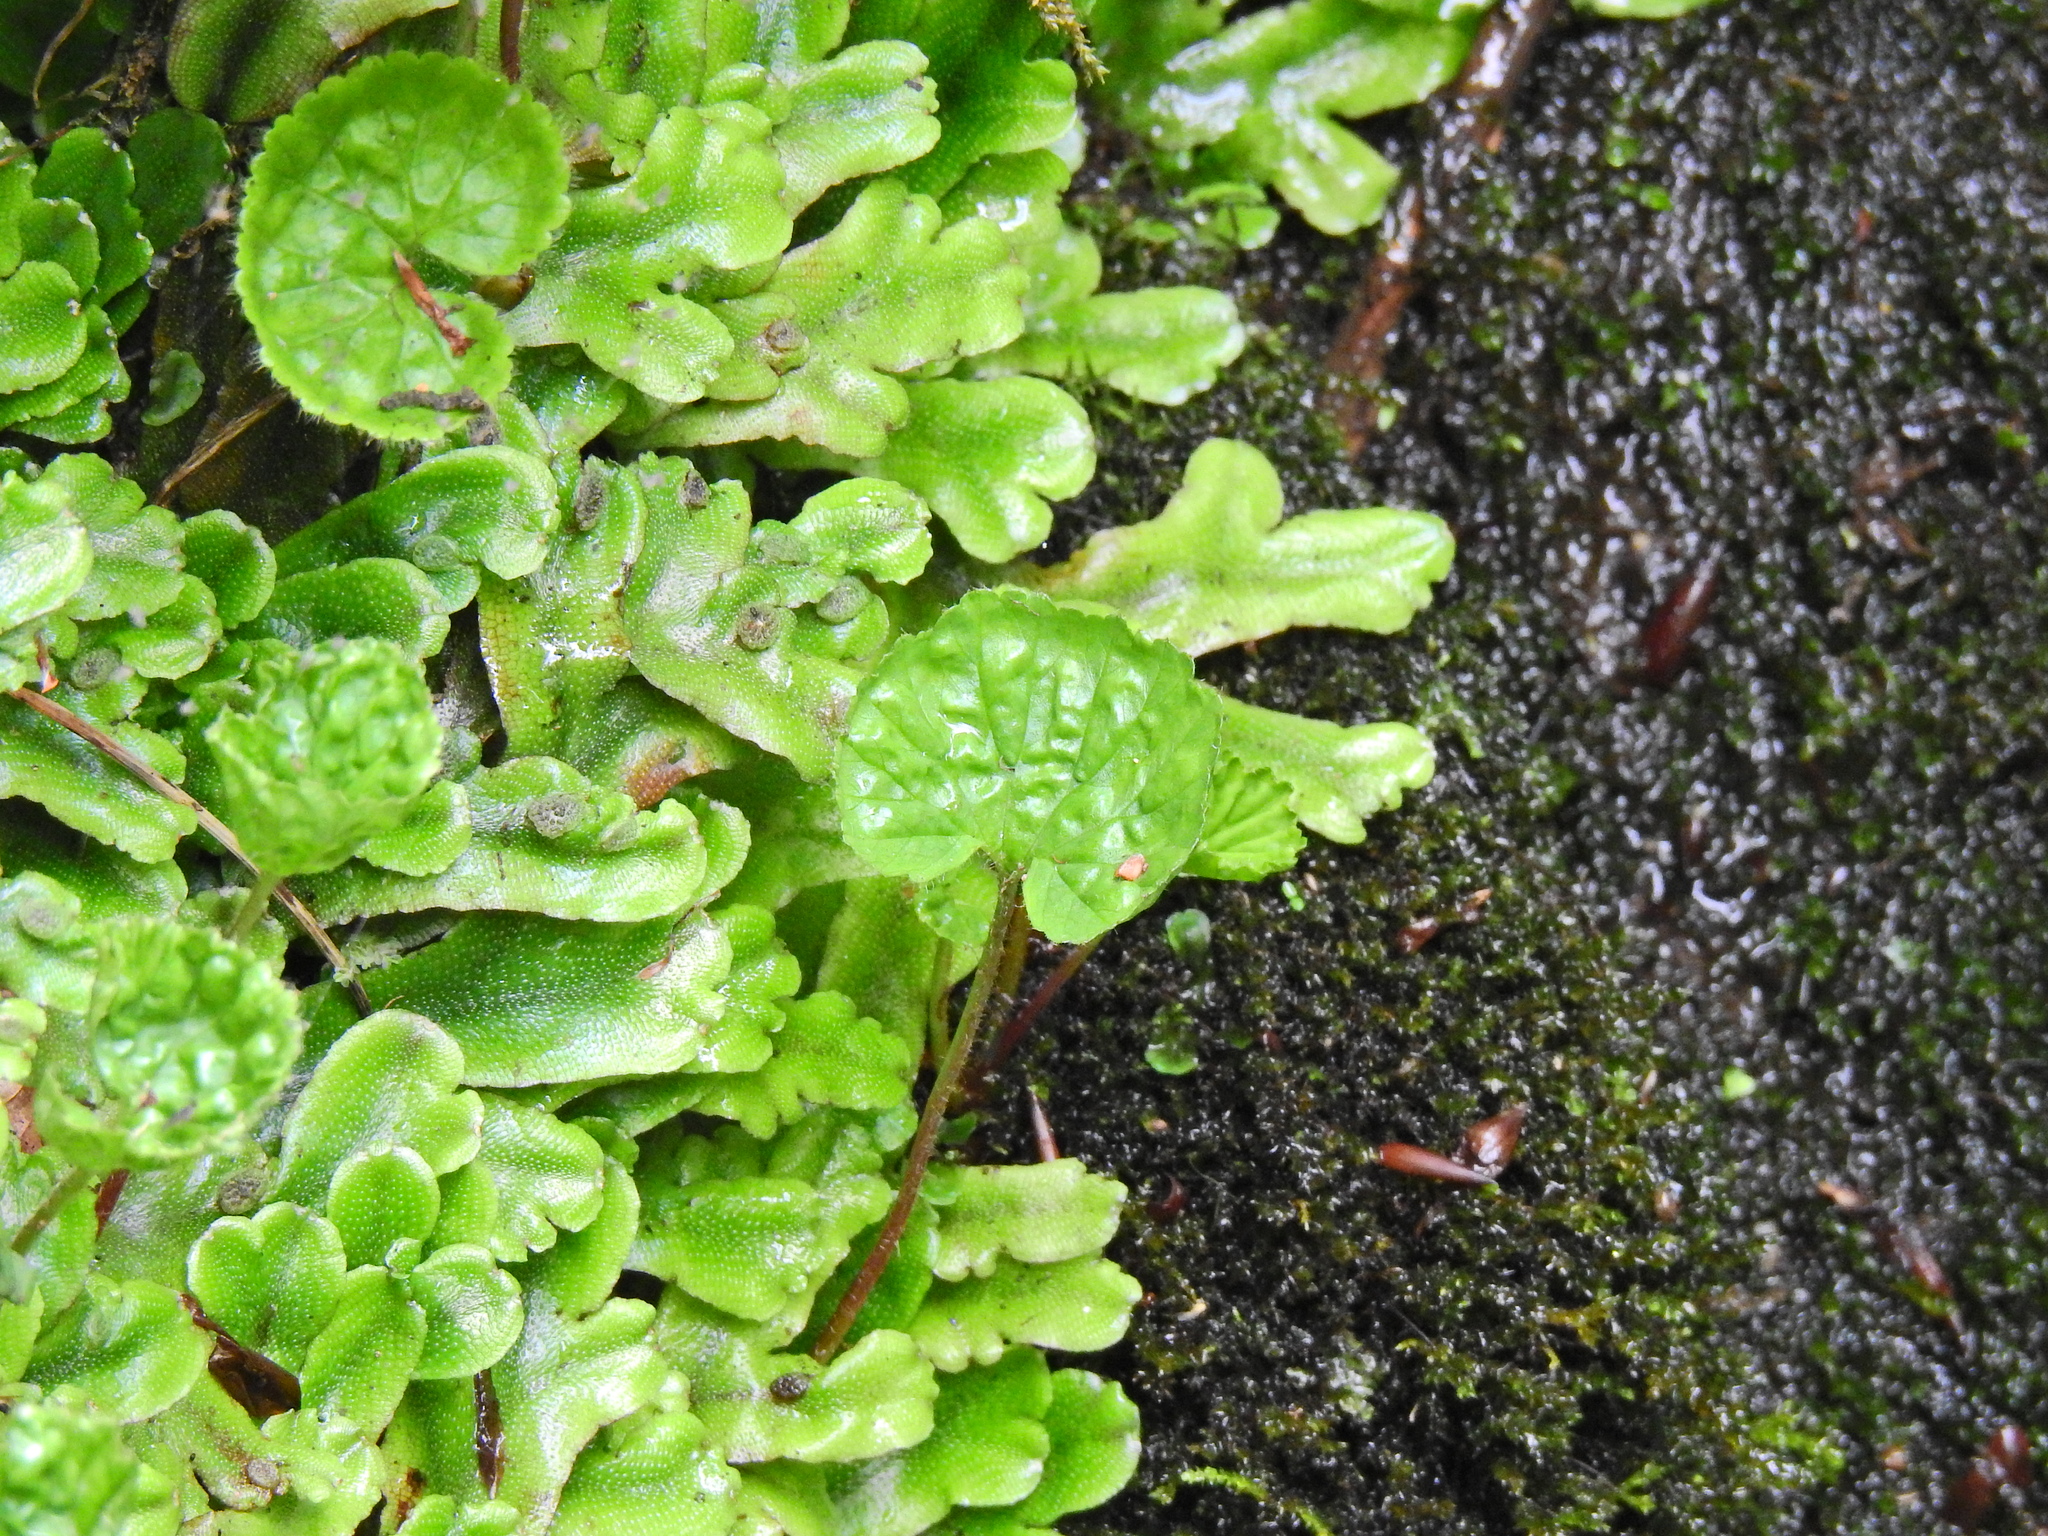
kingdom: Plantae
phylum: Marchantiophyta
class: Marchantiopsida
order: Marchantiales
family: Conocephalaceae
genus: Conocephalum
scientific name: Conocephalum conicum
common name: Great scented liverwort
